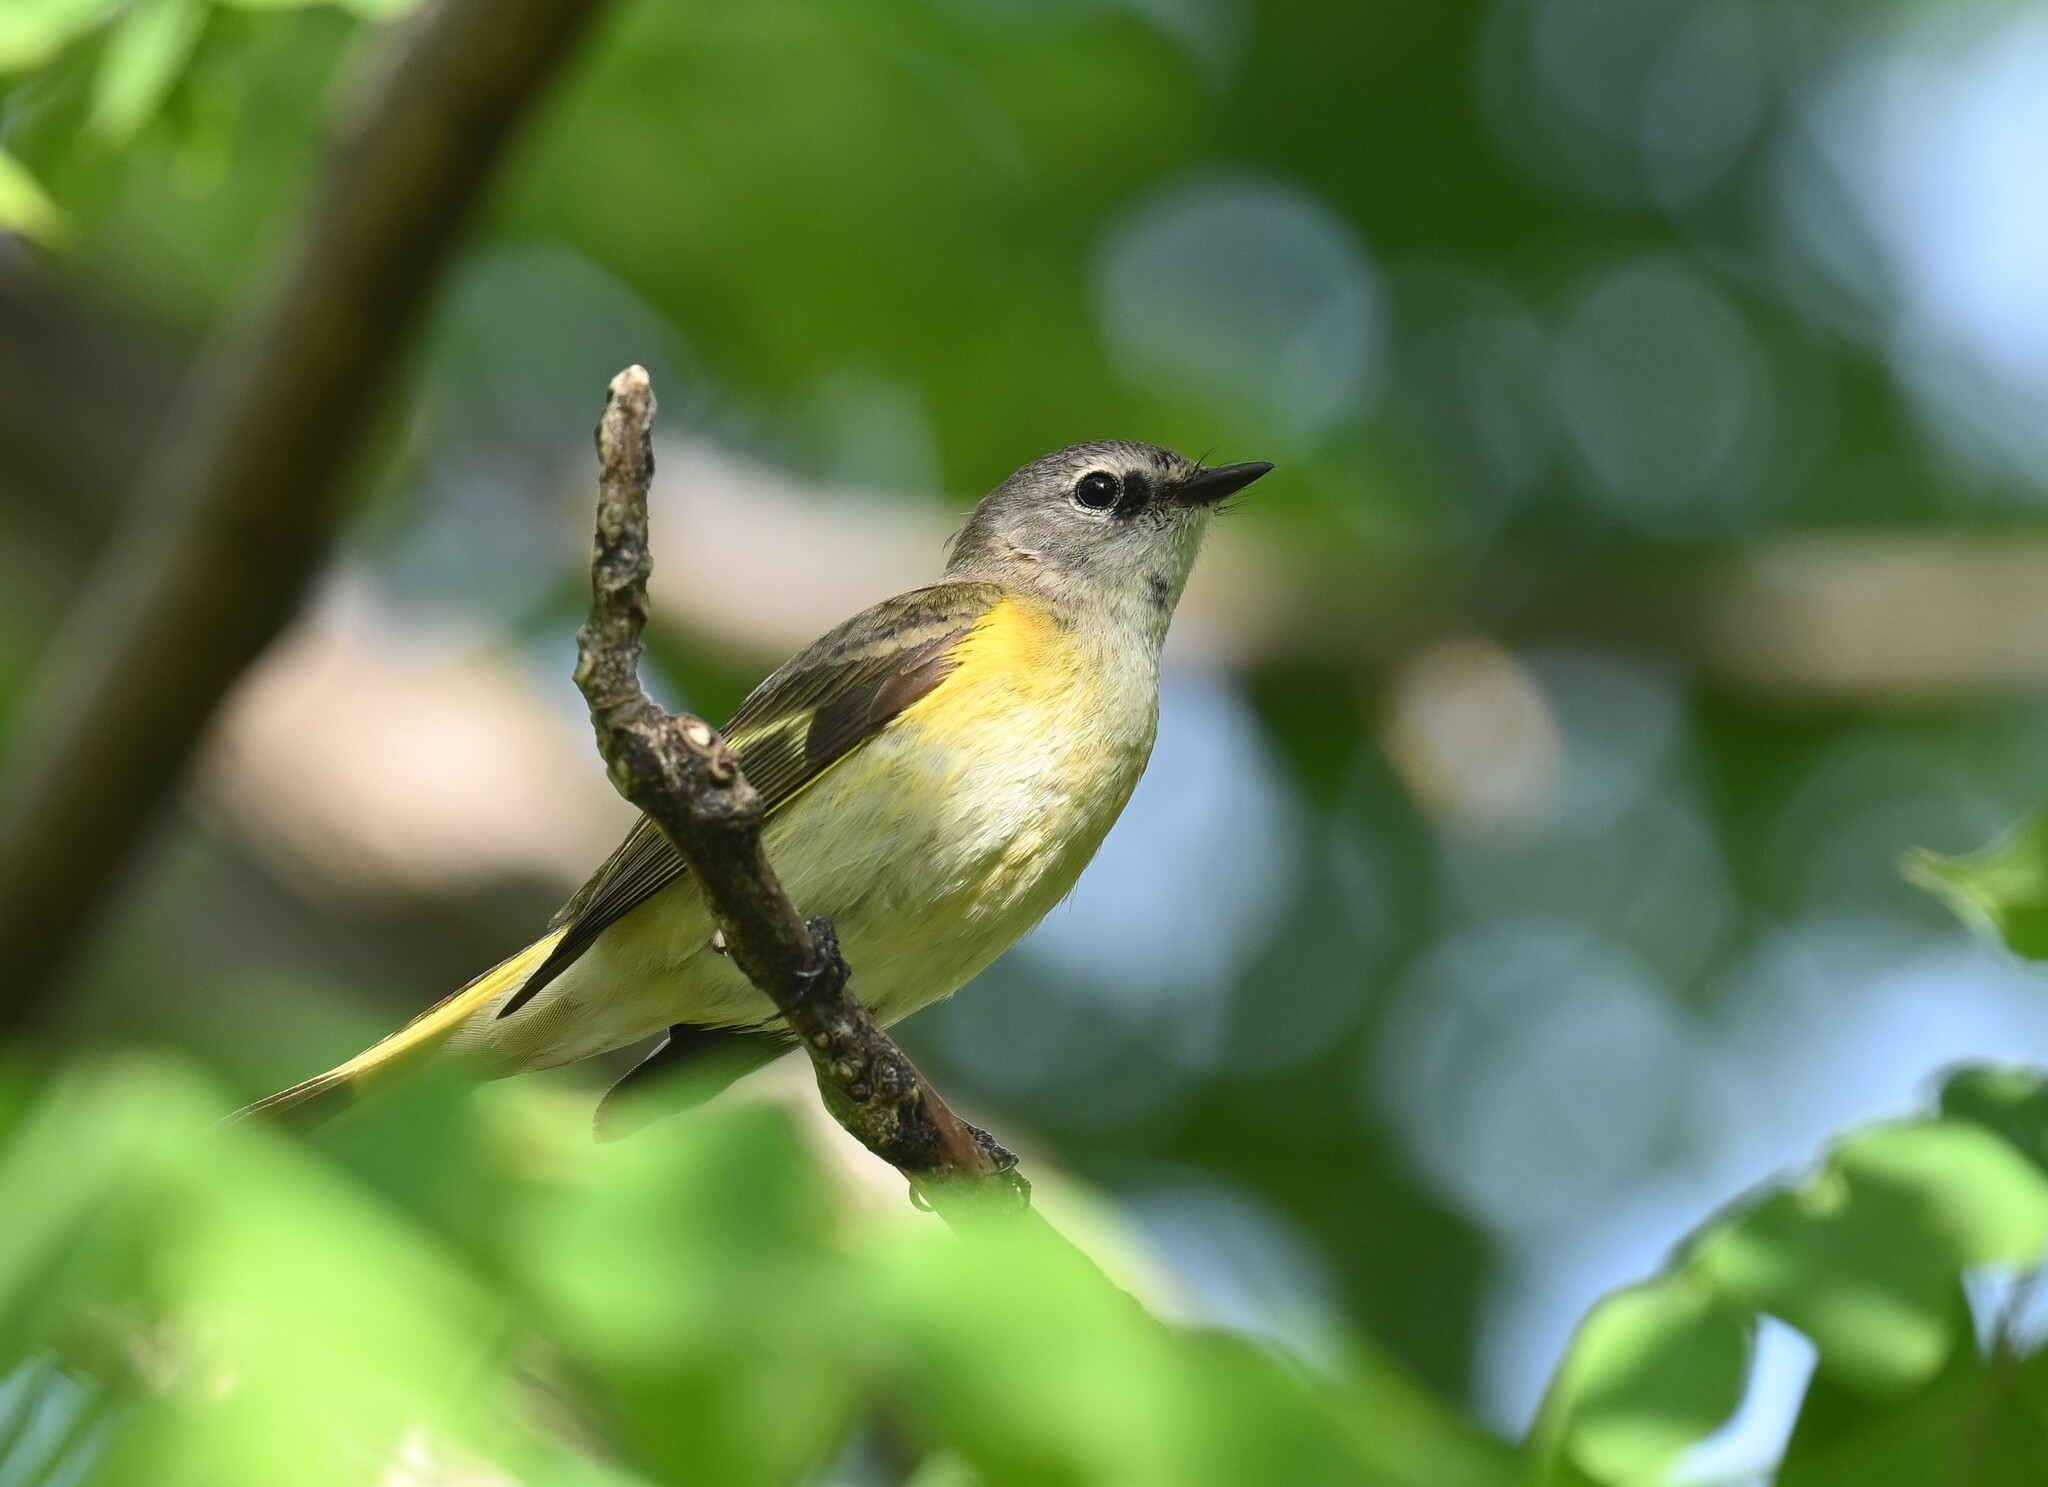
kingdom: Animalia
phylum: Chordata
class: Aves
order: Passeriformes
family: Parulidae
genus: Setophaga
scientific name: Setophaga ruticilla
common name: American redstart
